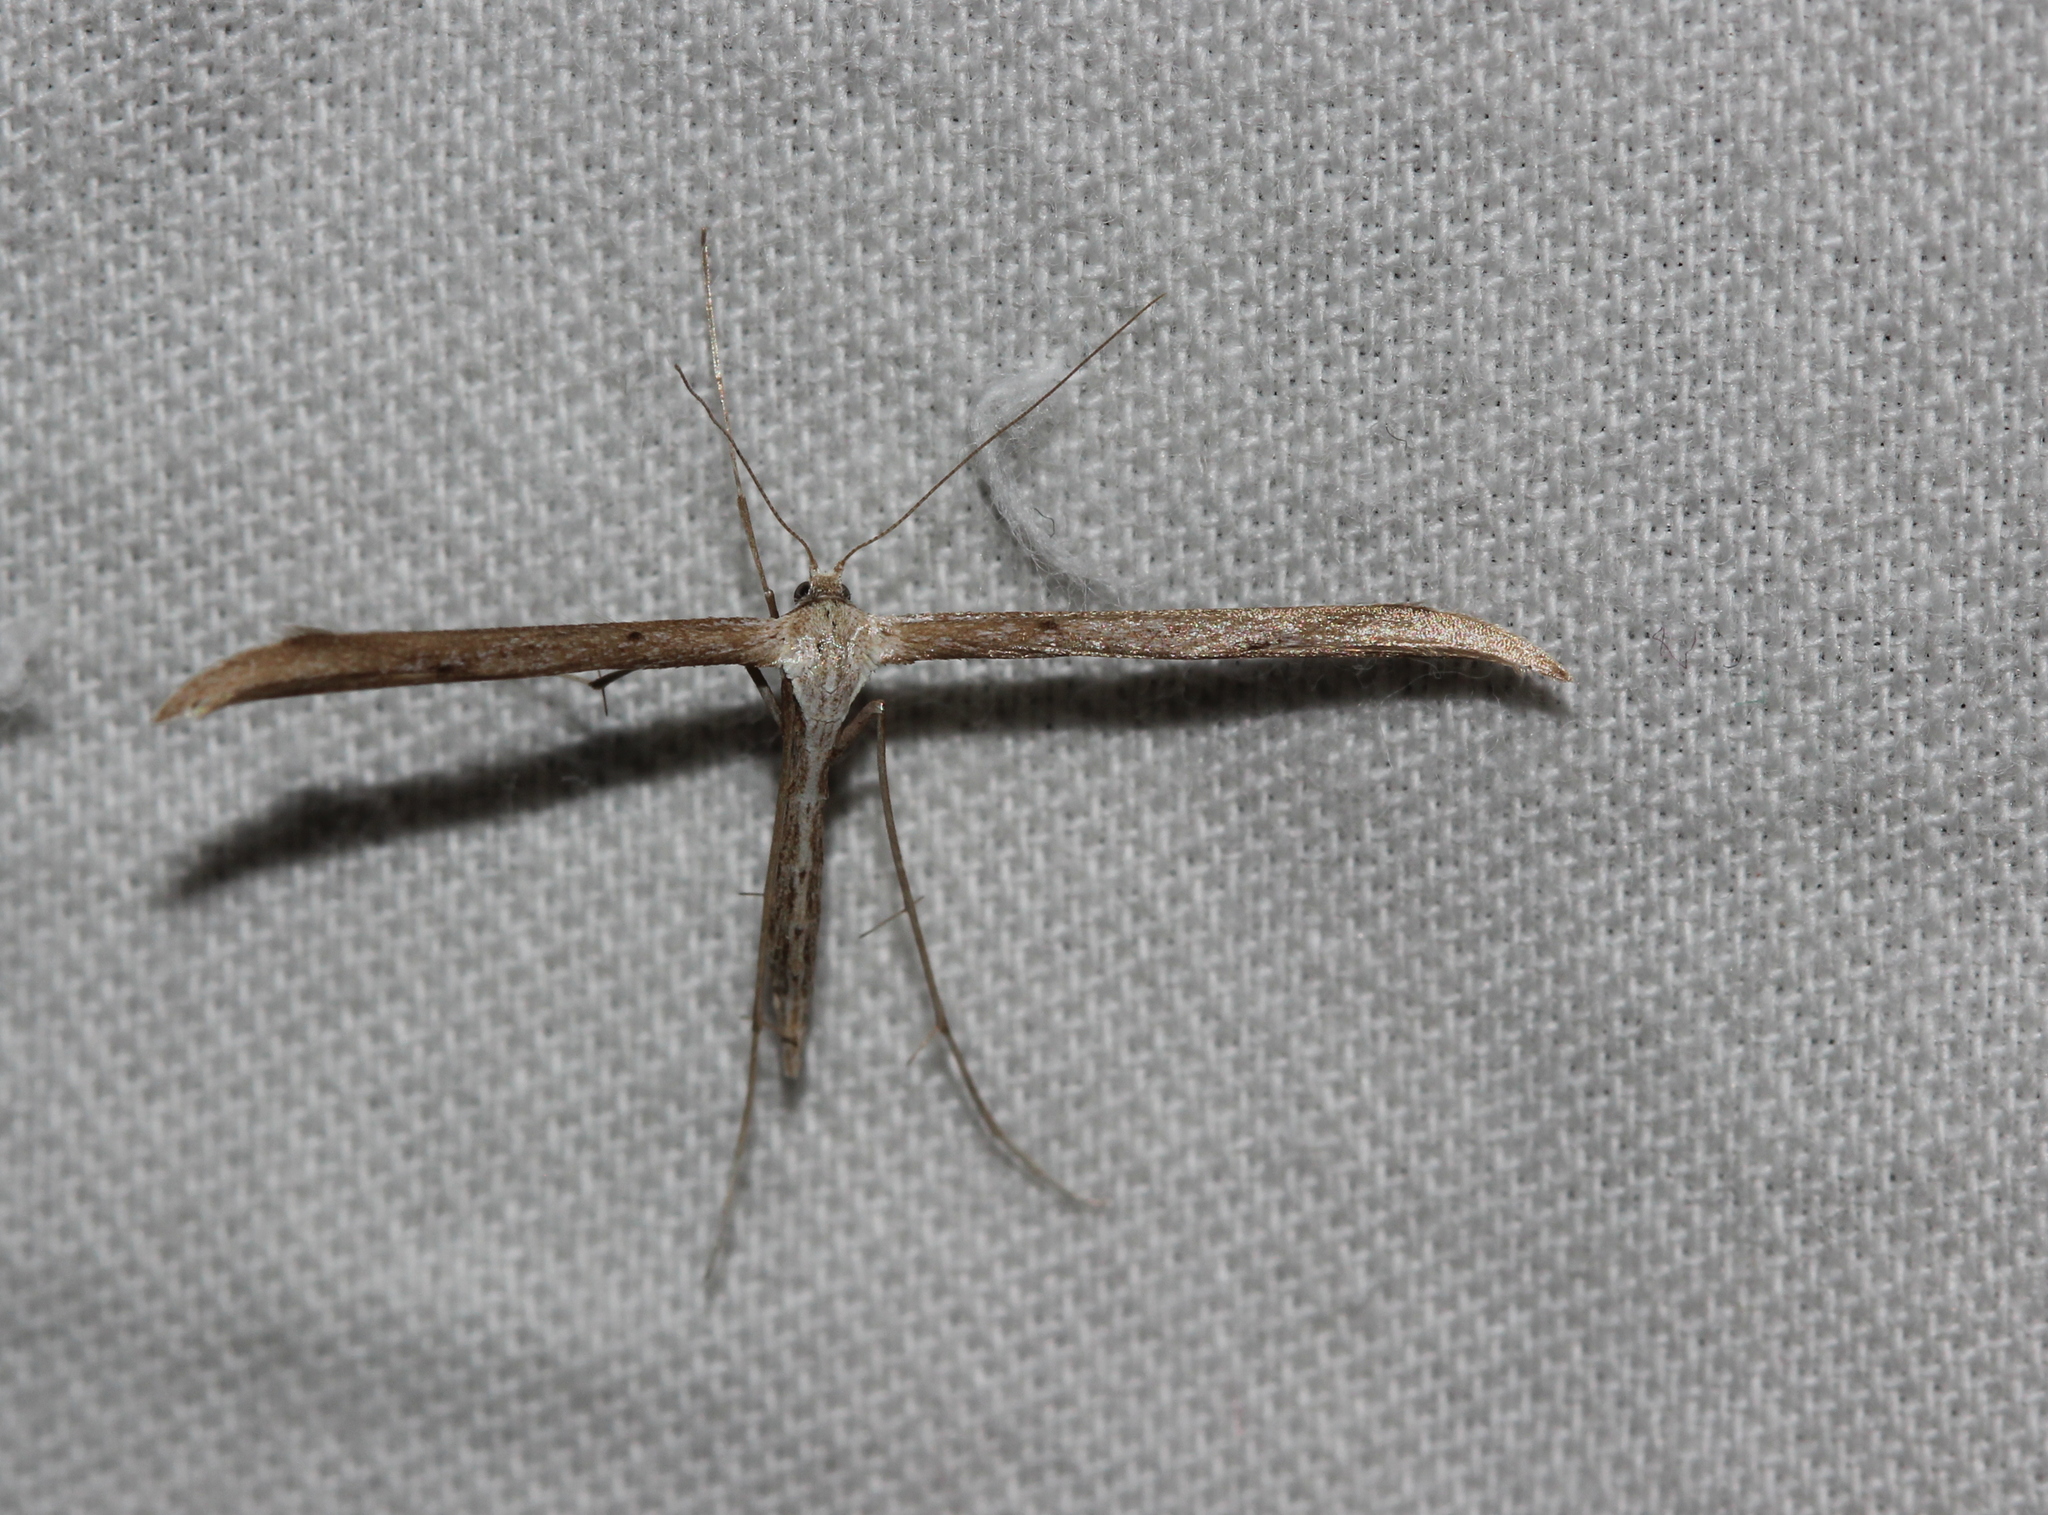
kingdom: Animalia
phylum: Arthropoda
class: Insecta
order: Lepidoptera
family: Pterophoridae
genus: Emmelina
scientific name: Emmelina monodactyla
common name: Common plume
